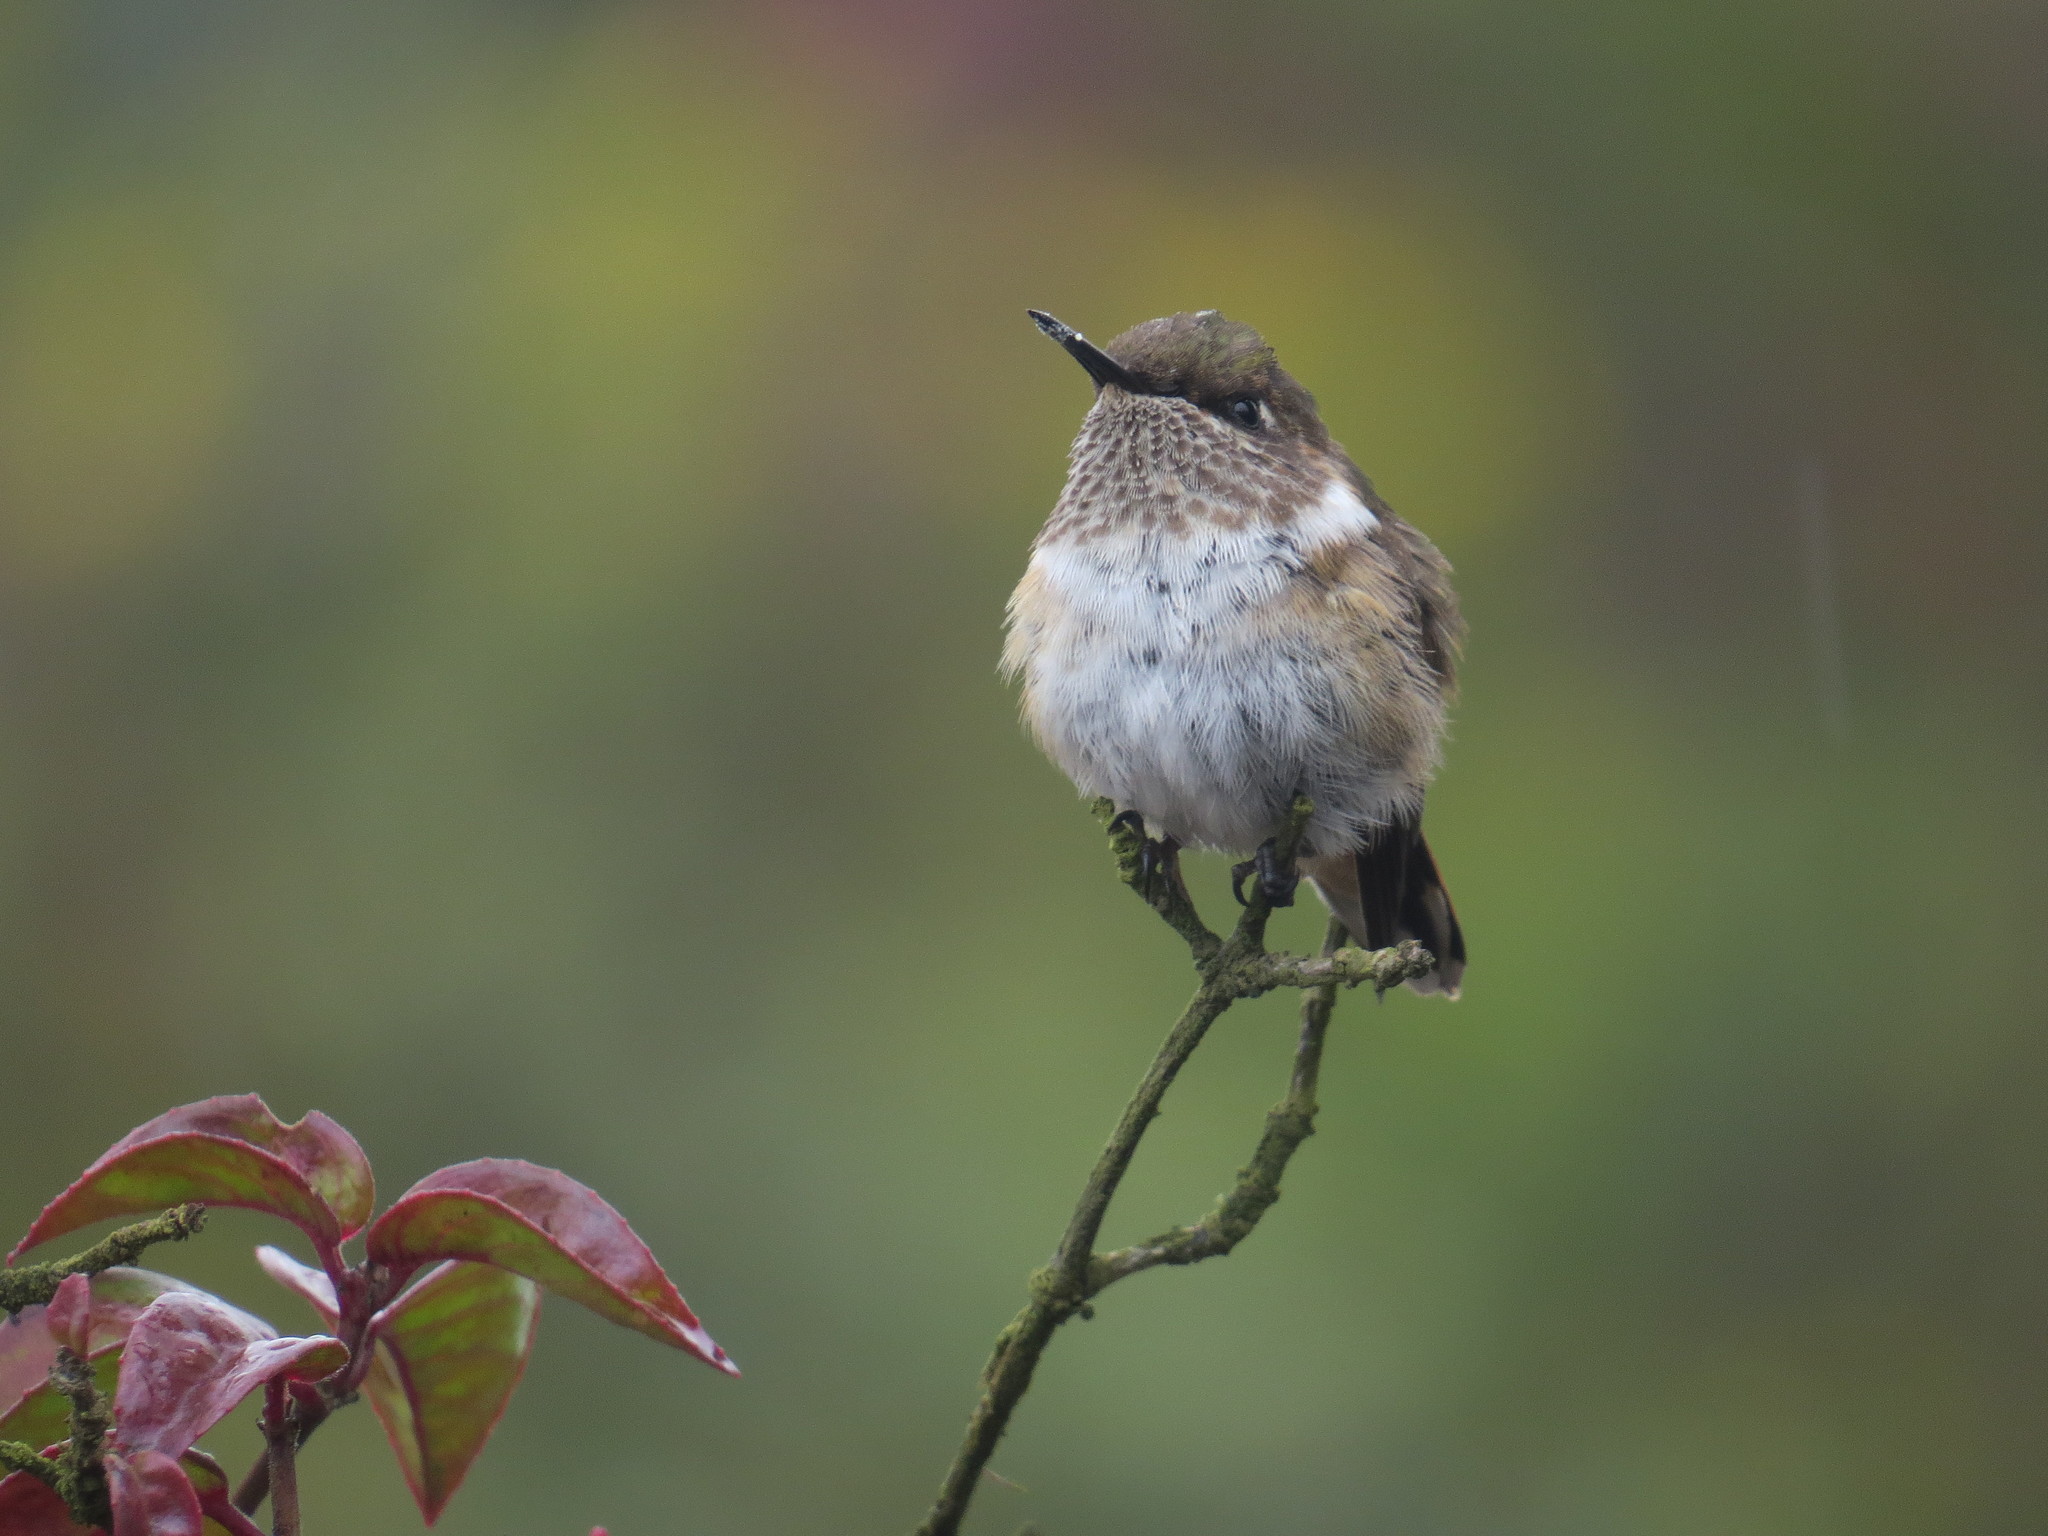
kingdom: Animalia
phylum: Chordata
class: Aves
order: Apodiformes
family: Trochilidae
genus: Selasphorus
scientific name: Selasphorus flammula
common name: Volcano hummingbird
